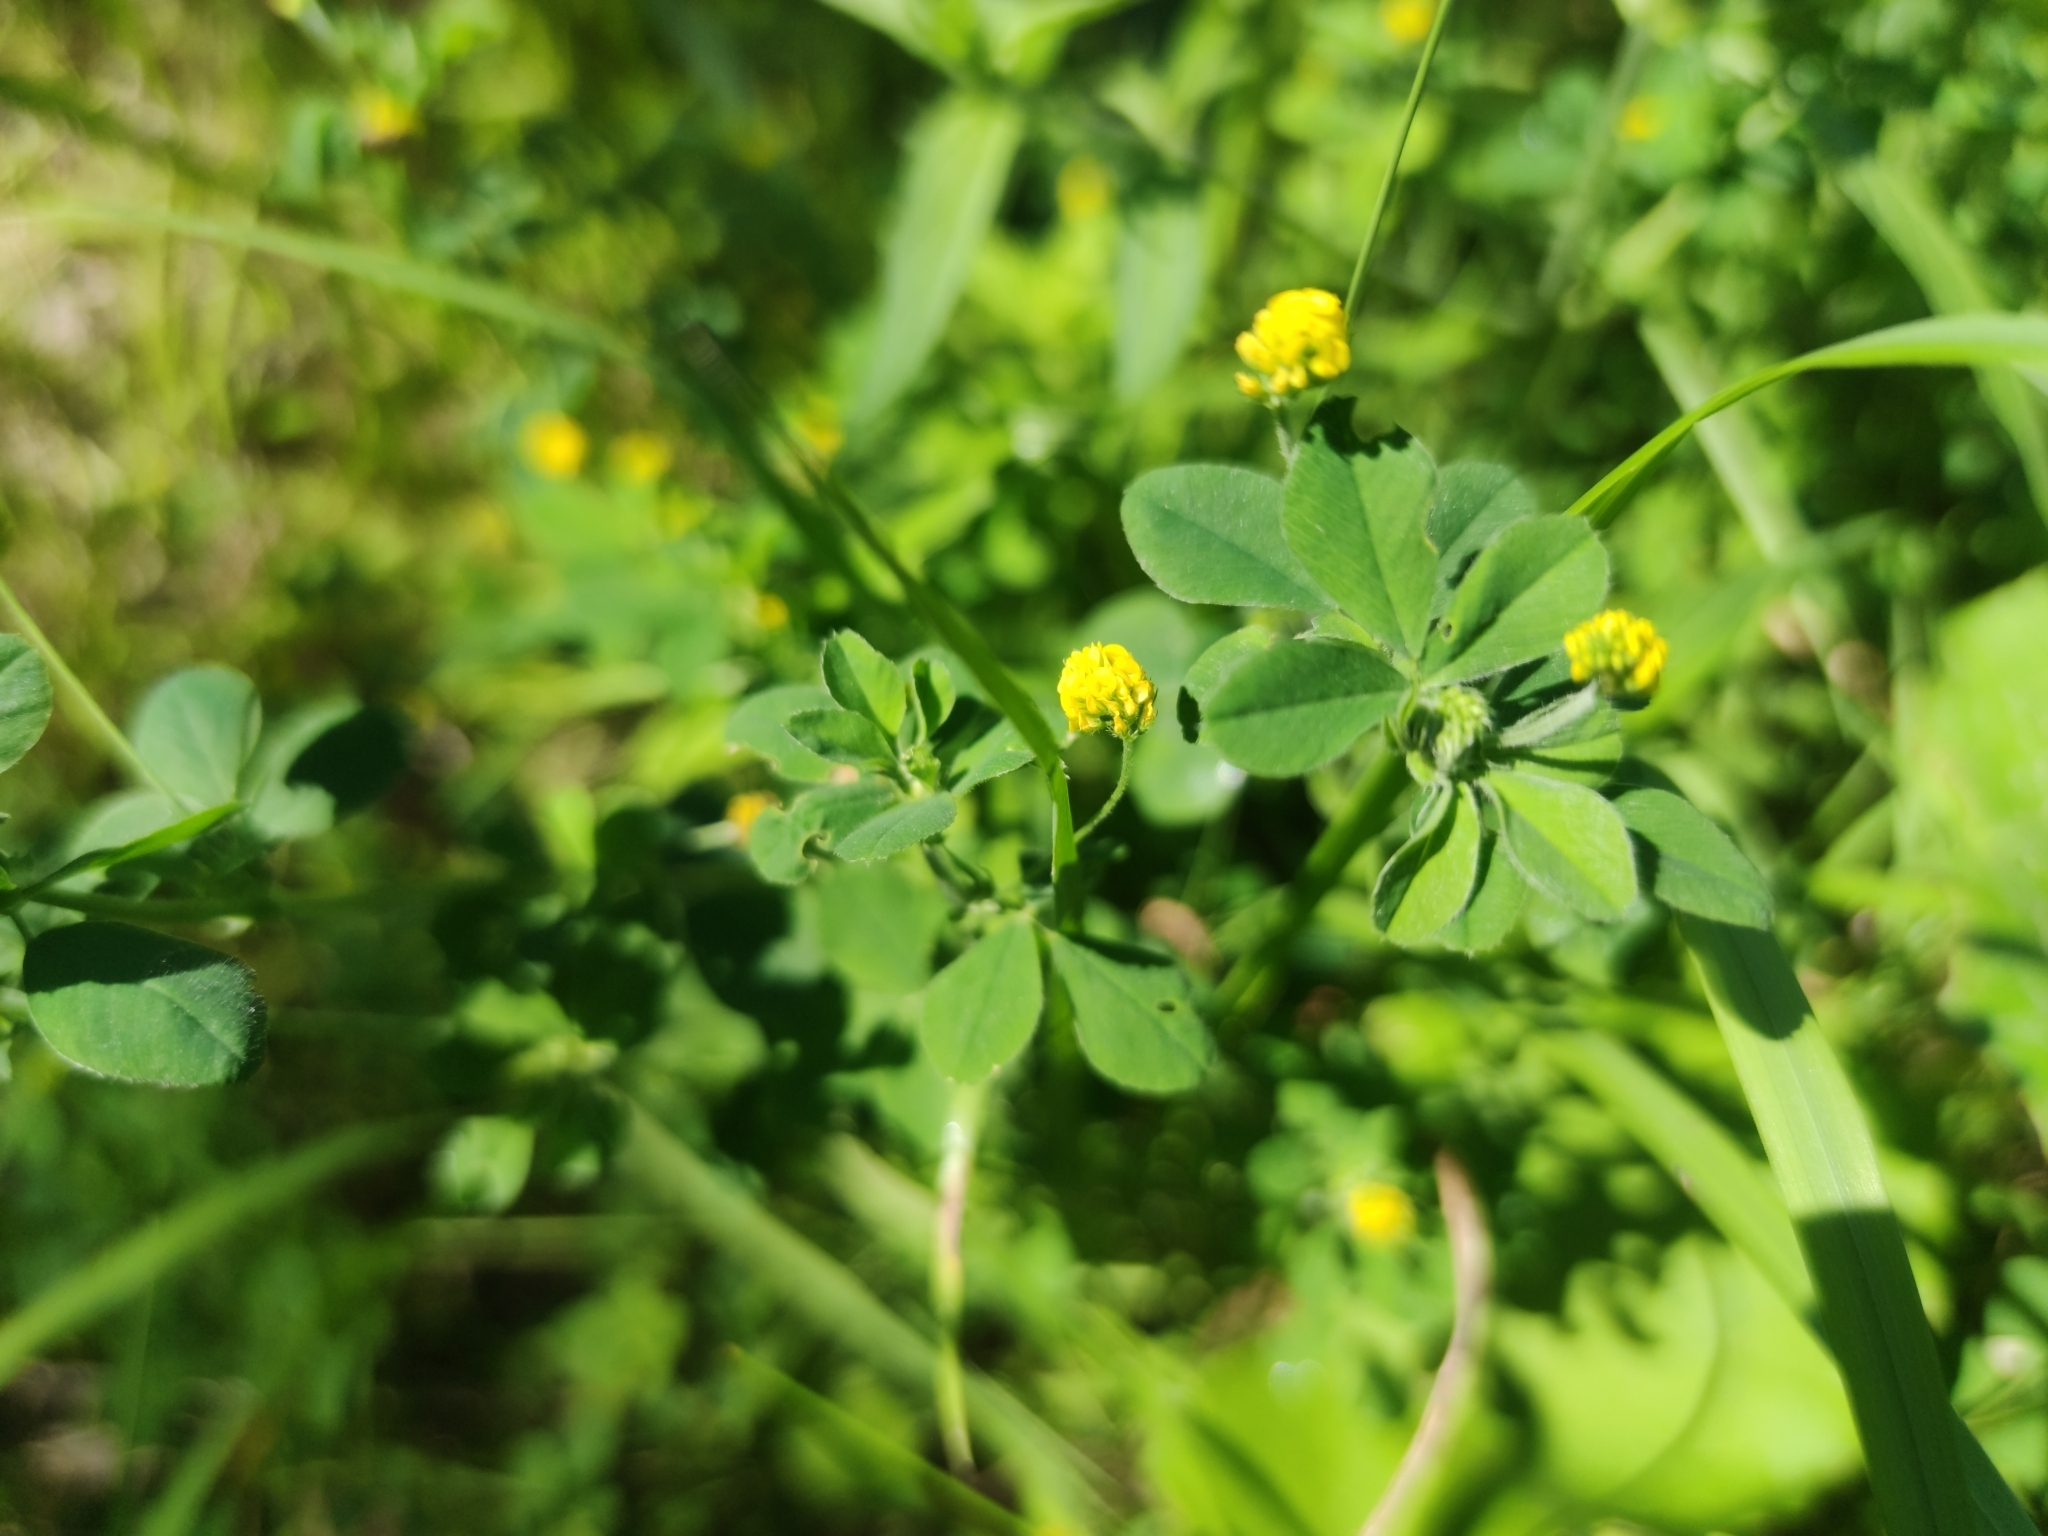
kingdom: Plantae
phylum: Tracheophyta
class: Magnoliopsida
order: Fabales
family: Fabaceae
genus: Medicago
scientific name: Medicago lupulina
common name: Black medick
